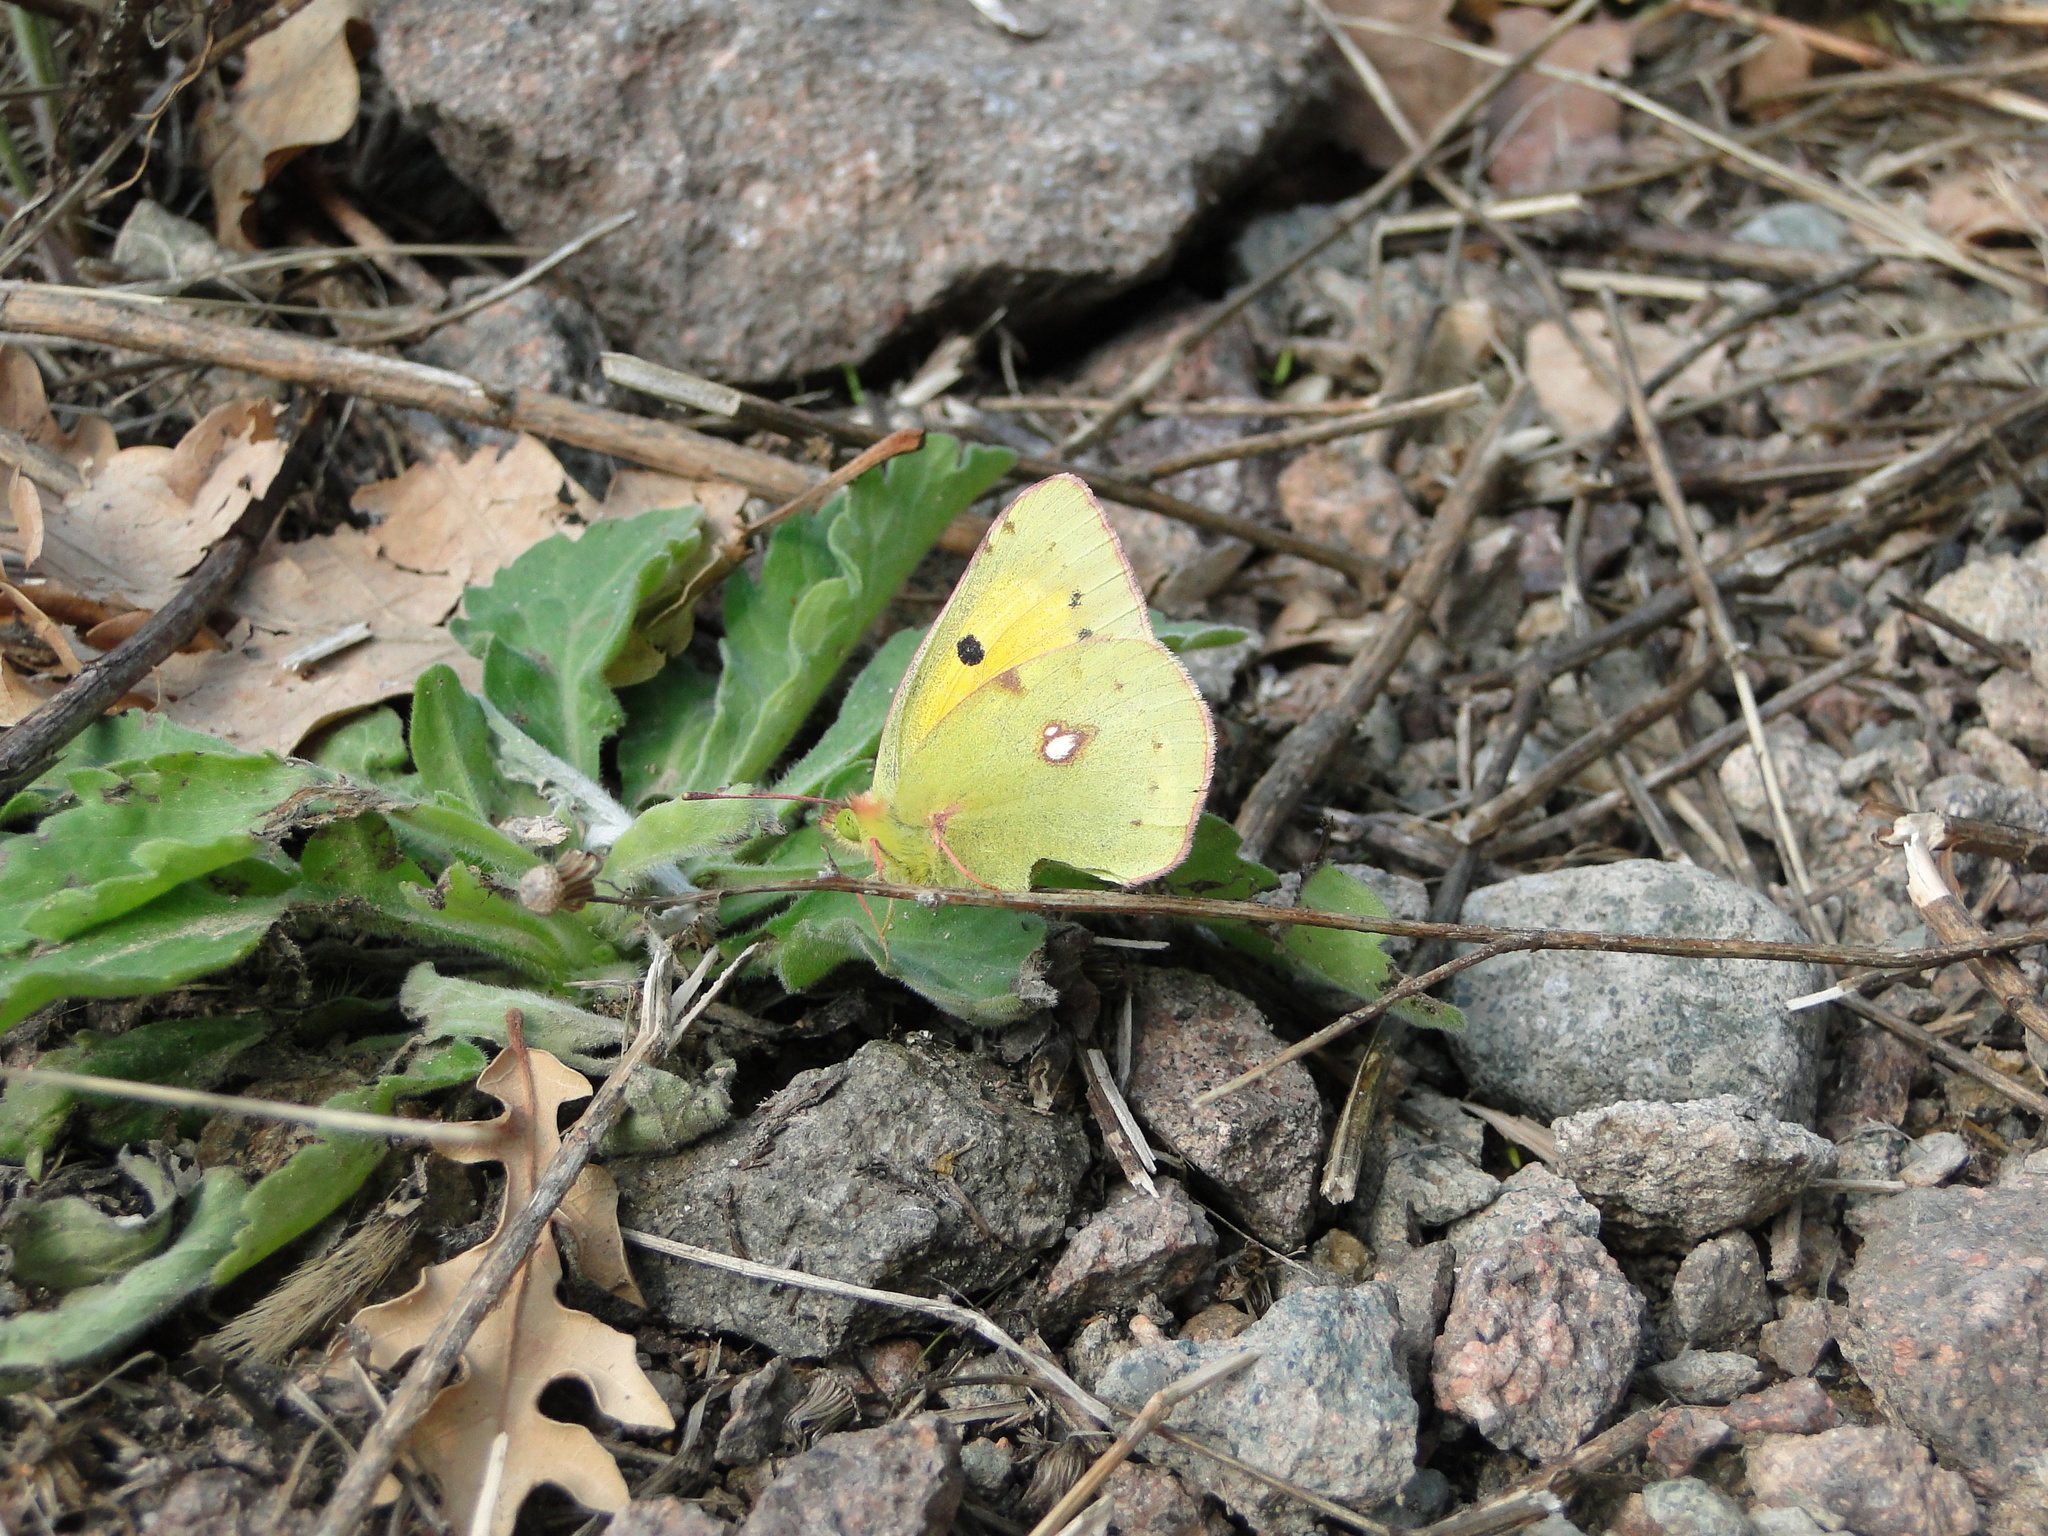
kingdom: Animalia
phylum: Arthropoda
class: Insecta
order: Lepidoptera
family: Pieridae
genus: Colias
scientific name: Colias croceus
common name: Clouded yellow
